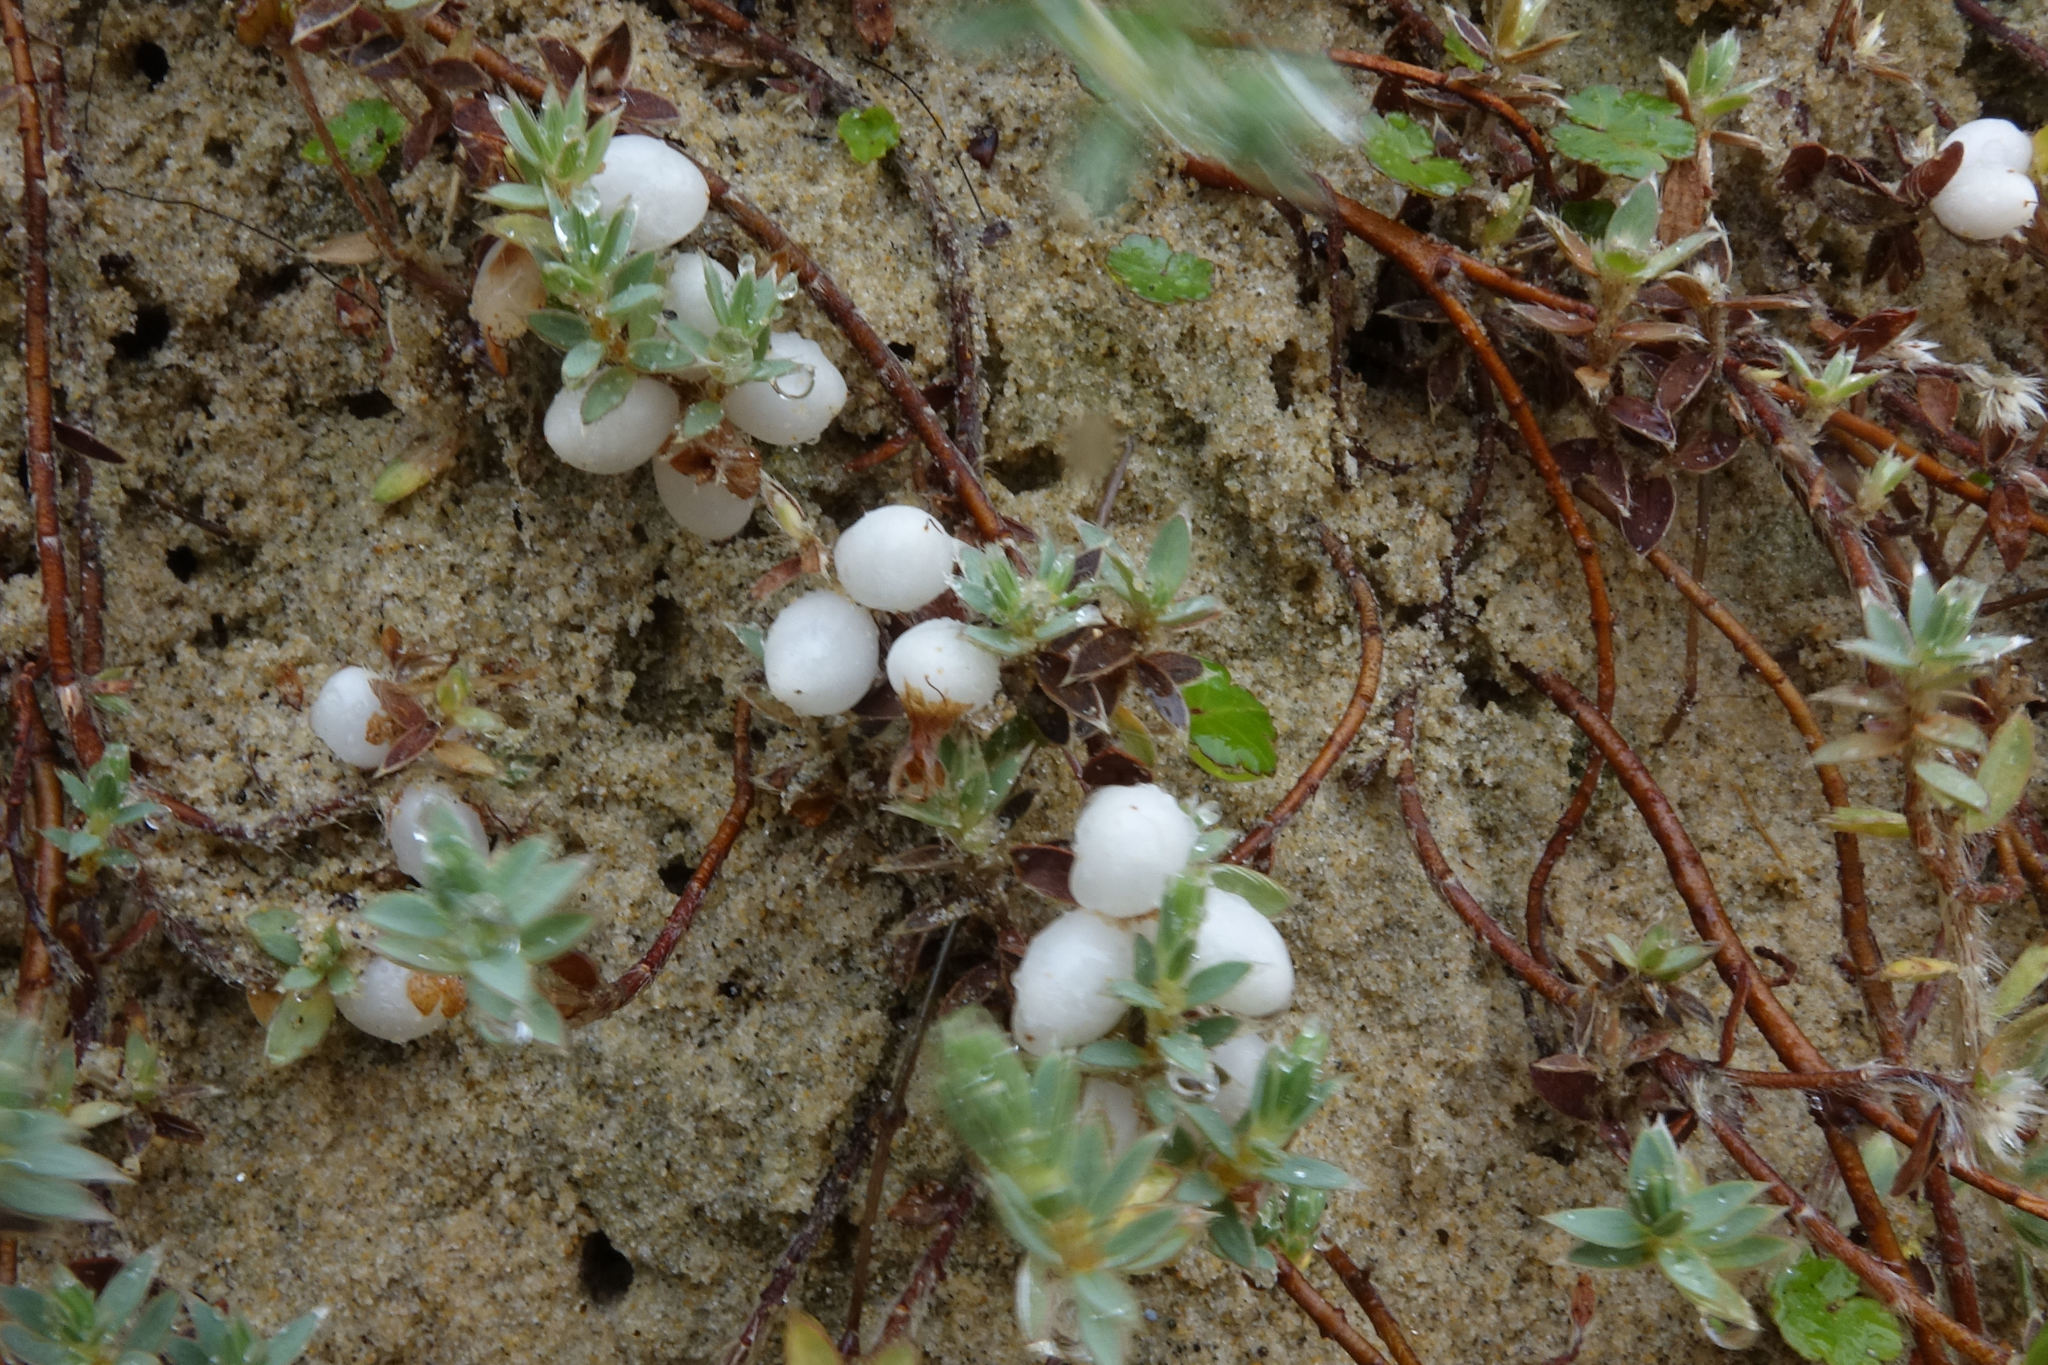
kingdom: Plantae
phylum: Tracheophyta
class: Magnoliopsida
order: Malvales
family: Thymelaeaceae
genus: Pimelea
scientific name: Pimelea lyallii
